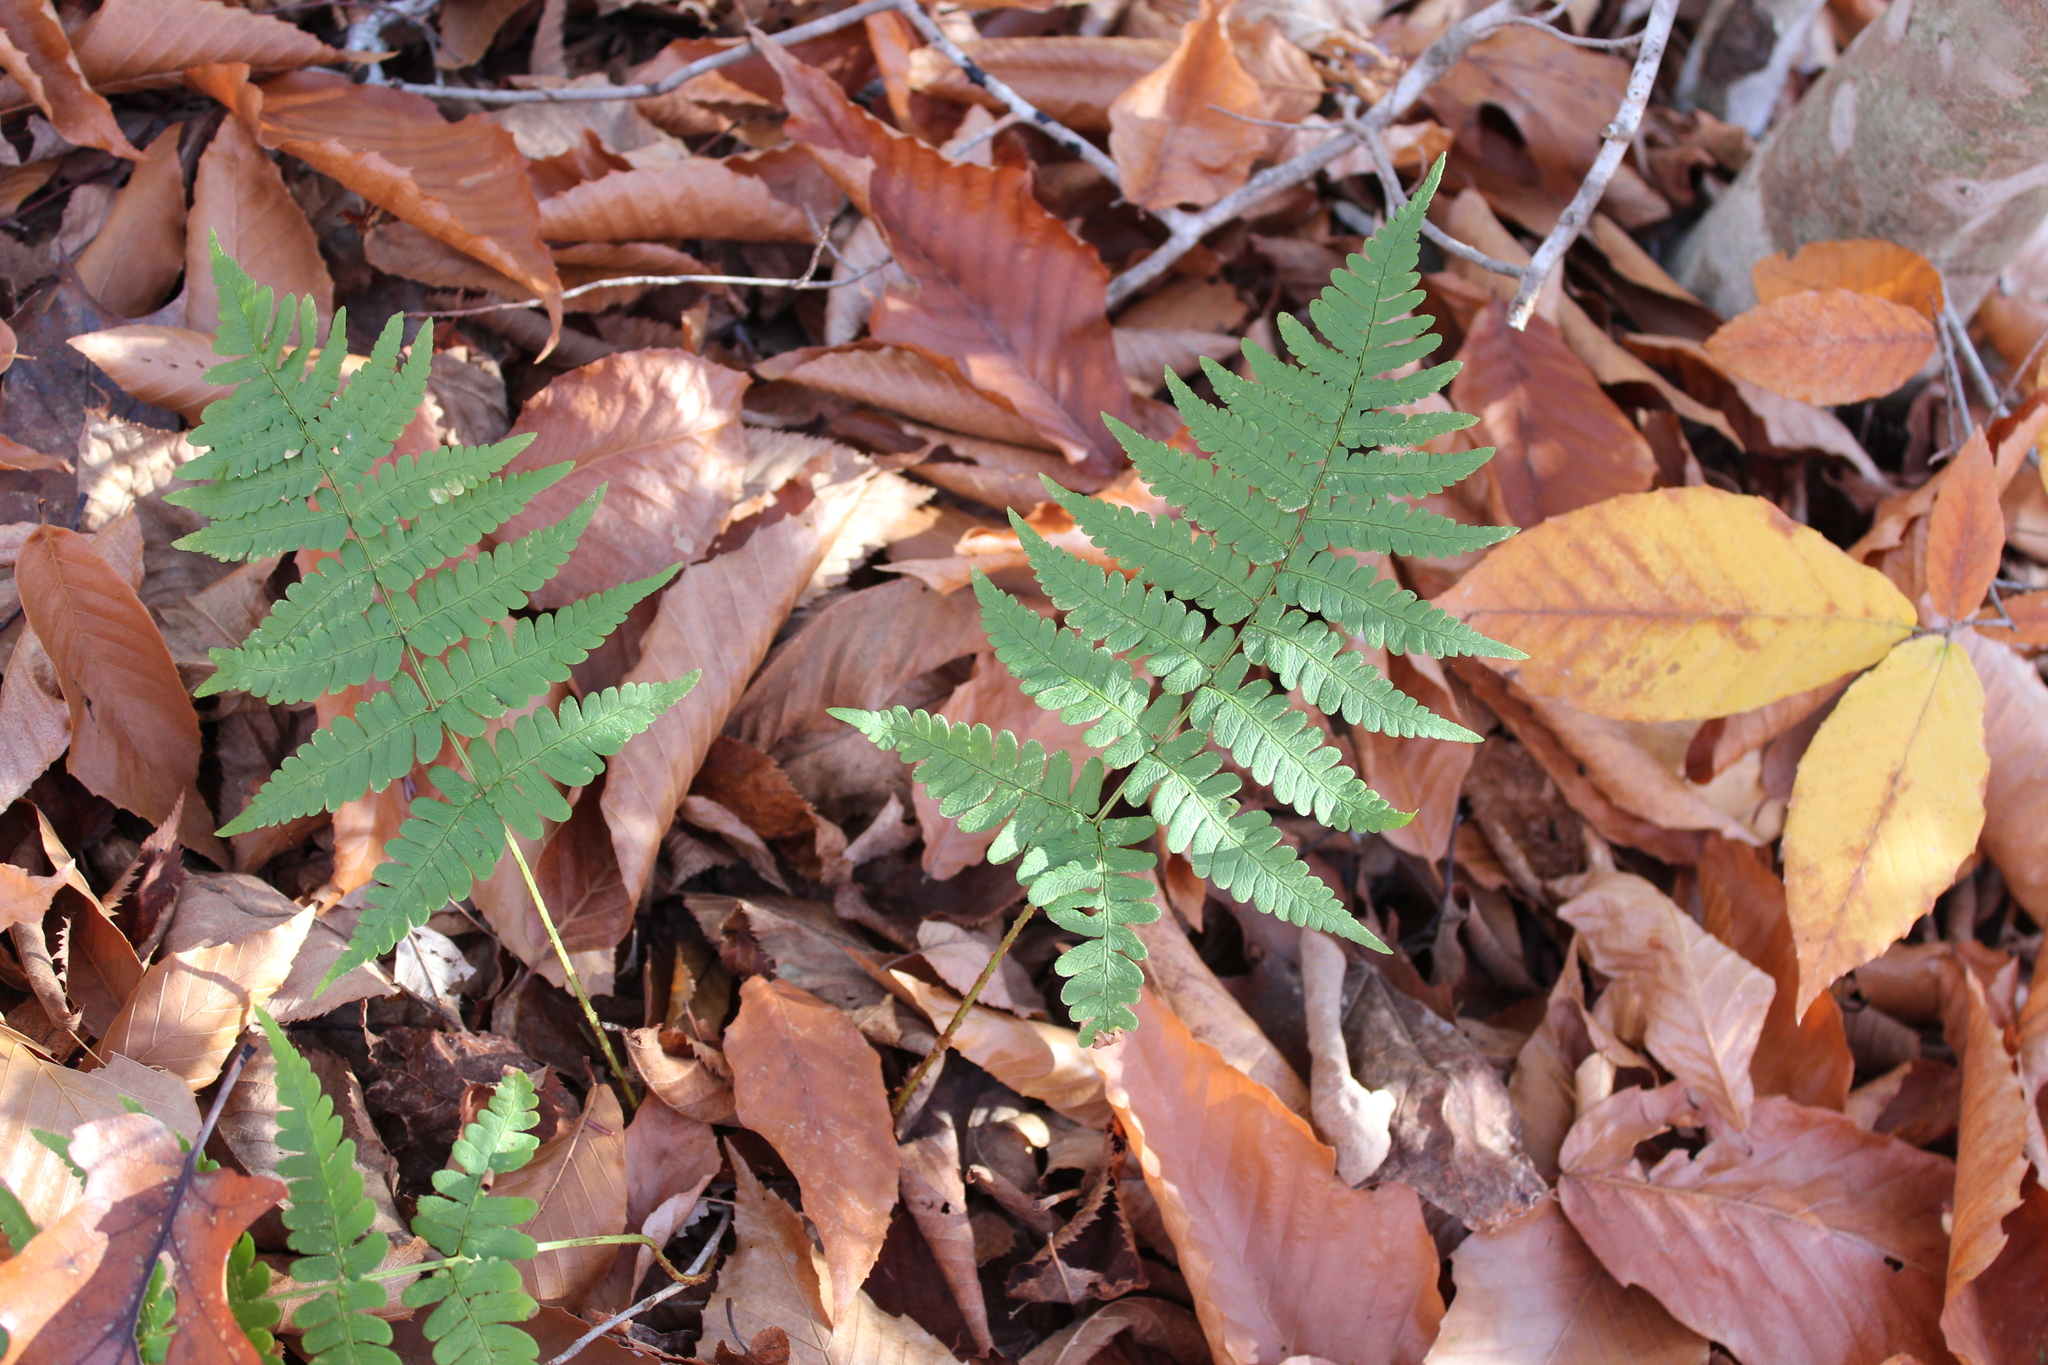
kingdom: Plantae
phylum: Tracheophyta
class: Polypodiopsida
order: Polypodiales
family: Dryopteridaceae
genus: Dryopteris
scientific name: Dryopteris marginalis
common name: Marginal wood fern
